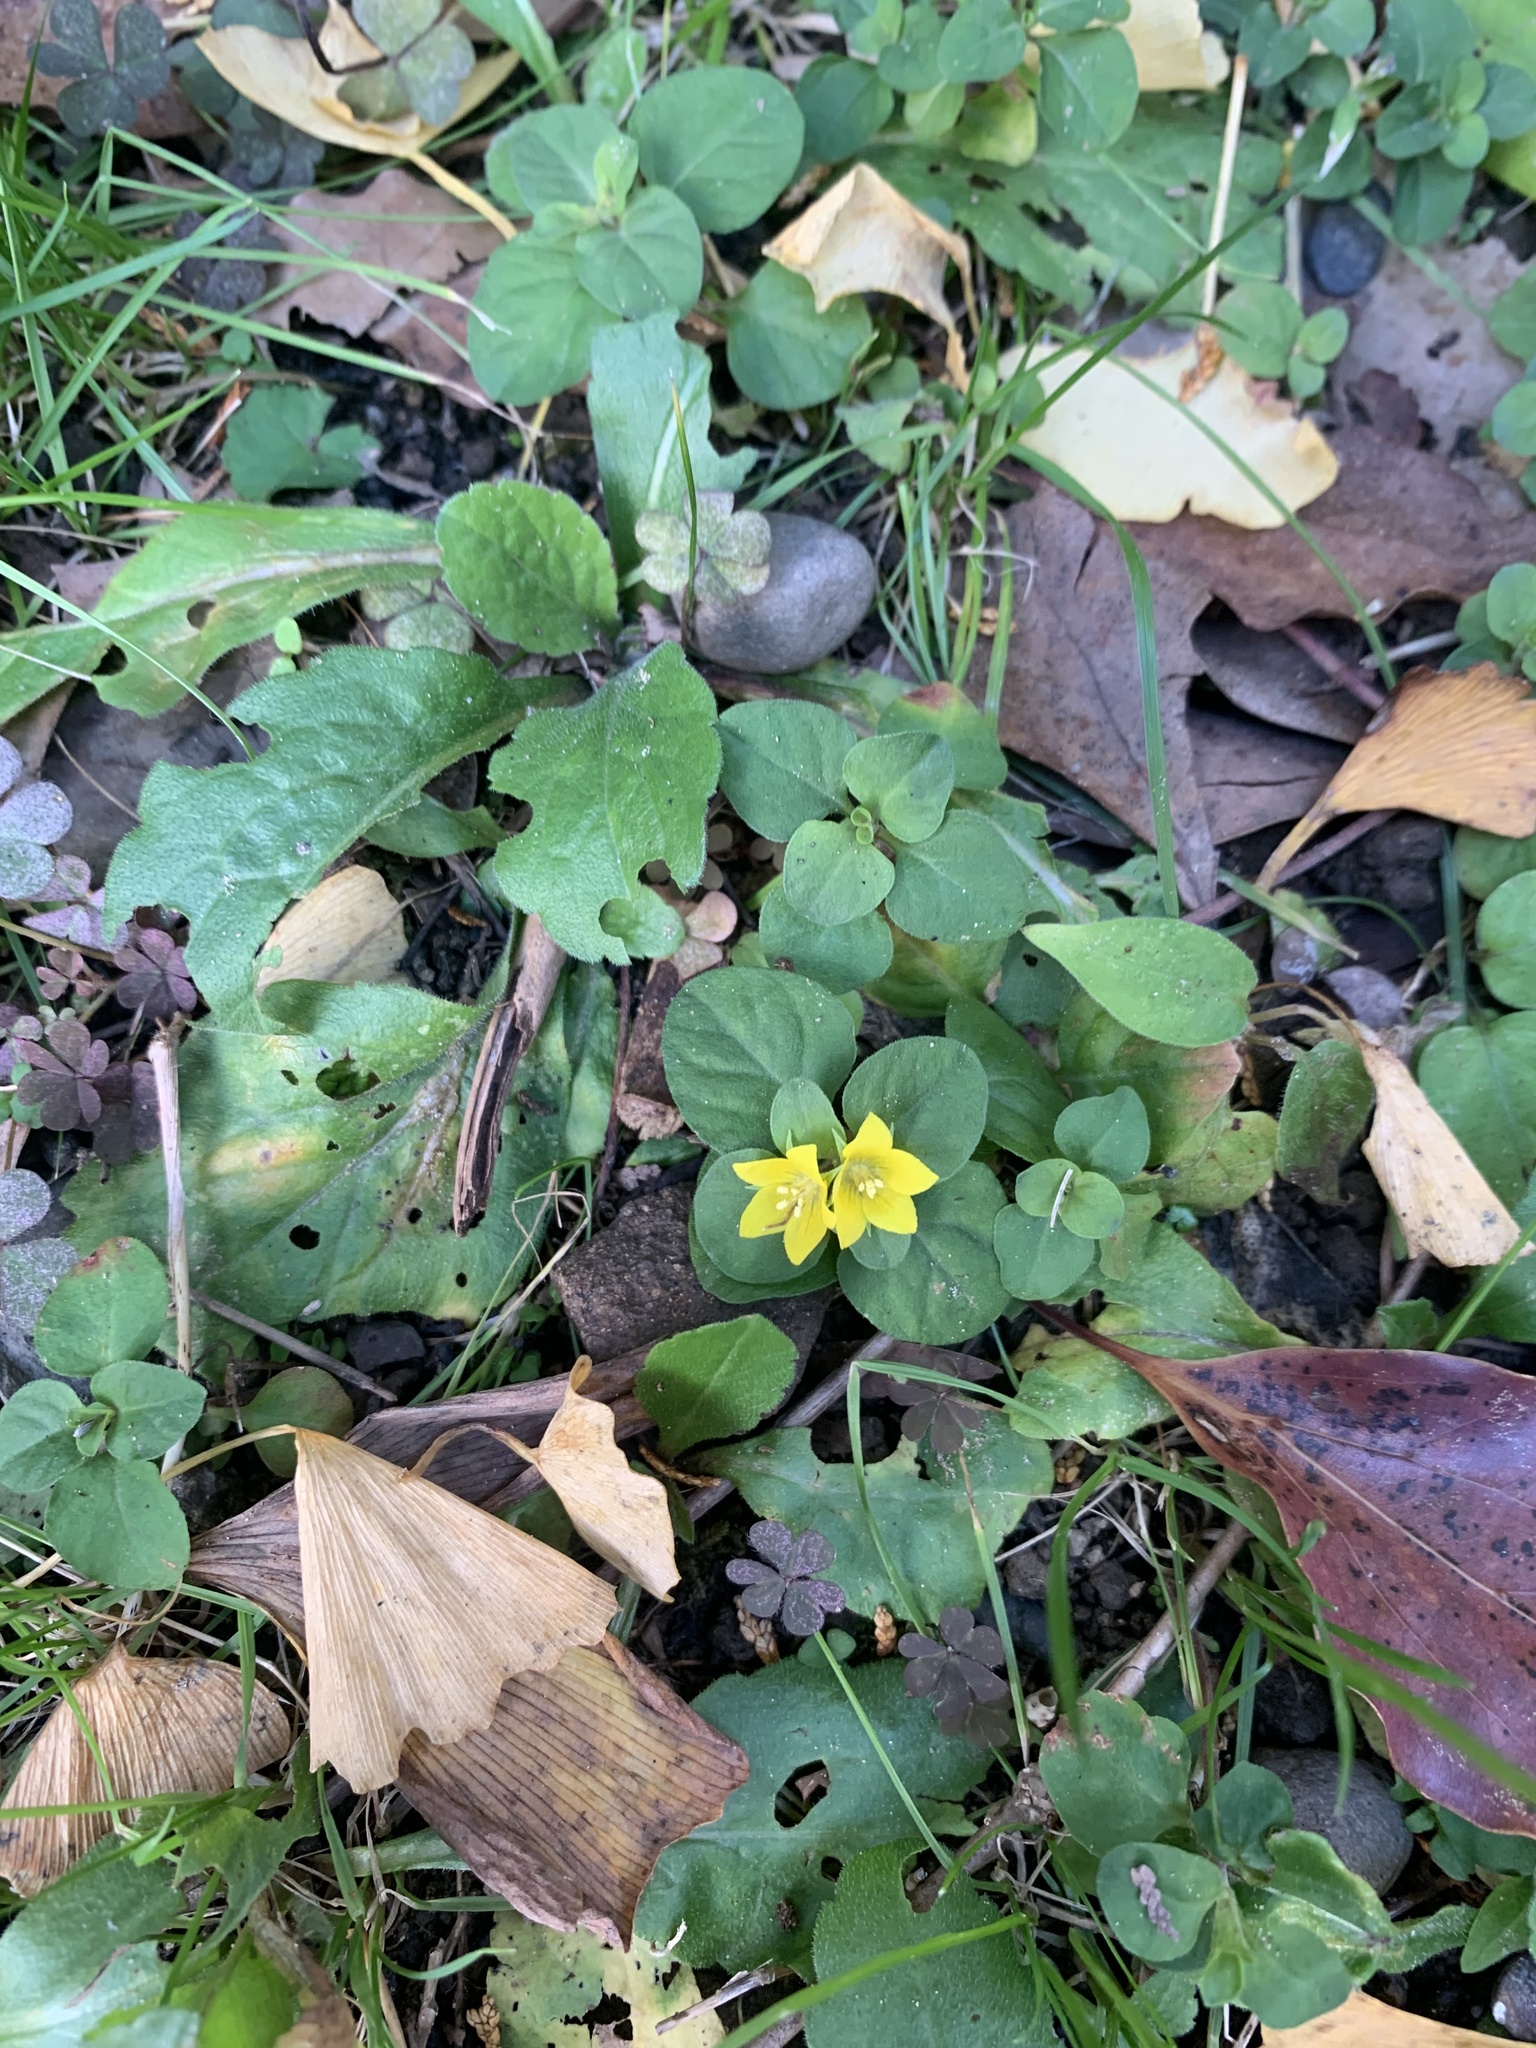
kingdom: Plantae
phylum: Tracheophyta
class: Magnoliopsida
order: Ericales
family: Primulaceae
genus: Lysimachia
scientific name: Lysimachia japonica
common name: Japanese yellow loosestrife
